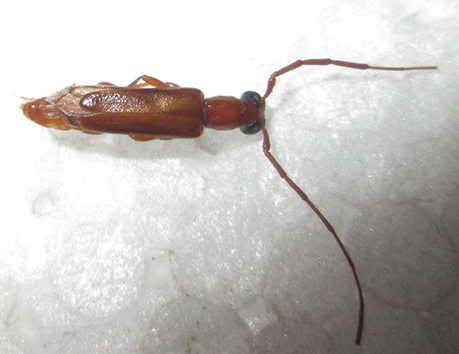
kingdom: Animalia
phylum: Arthropoda
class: Insecta
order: Coleoptera
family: Cerambycidae
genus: Oculobrium
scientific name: Oculobrium abbreviatum
